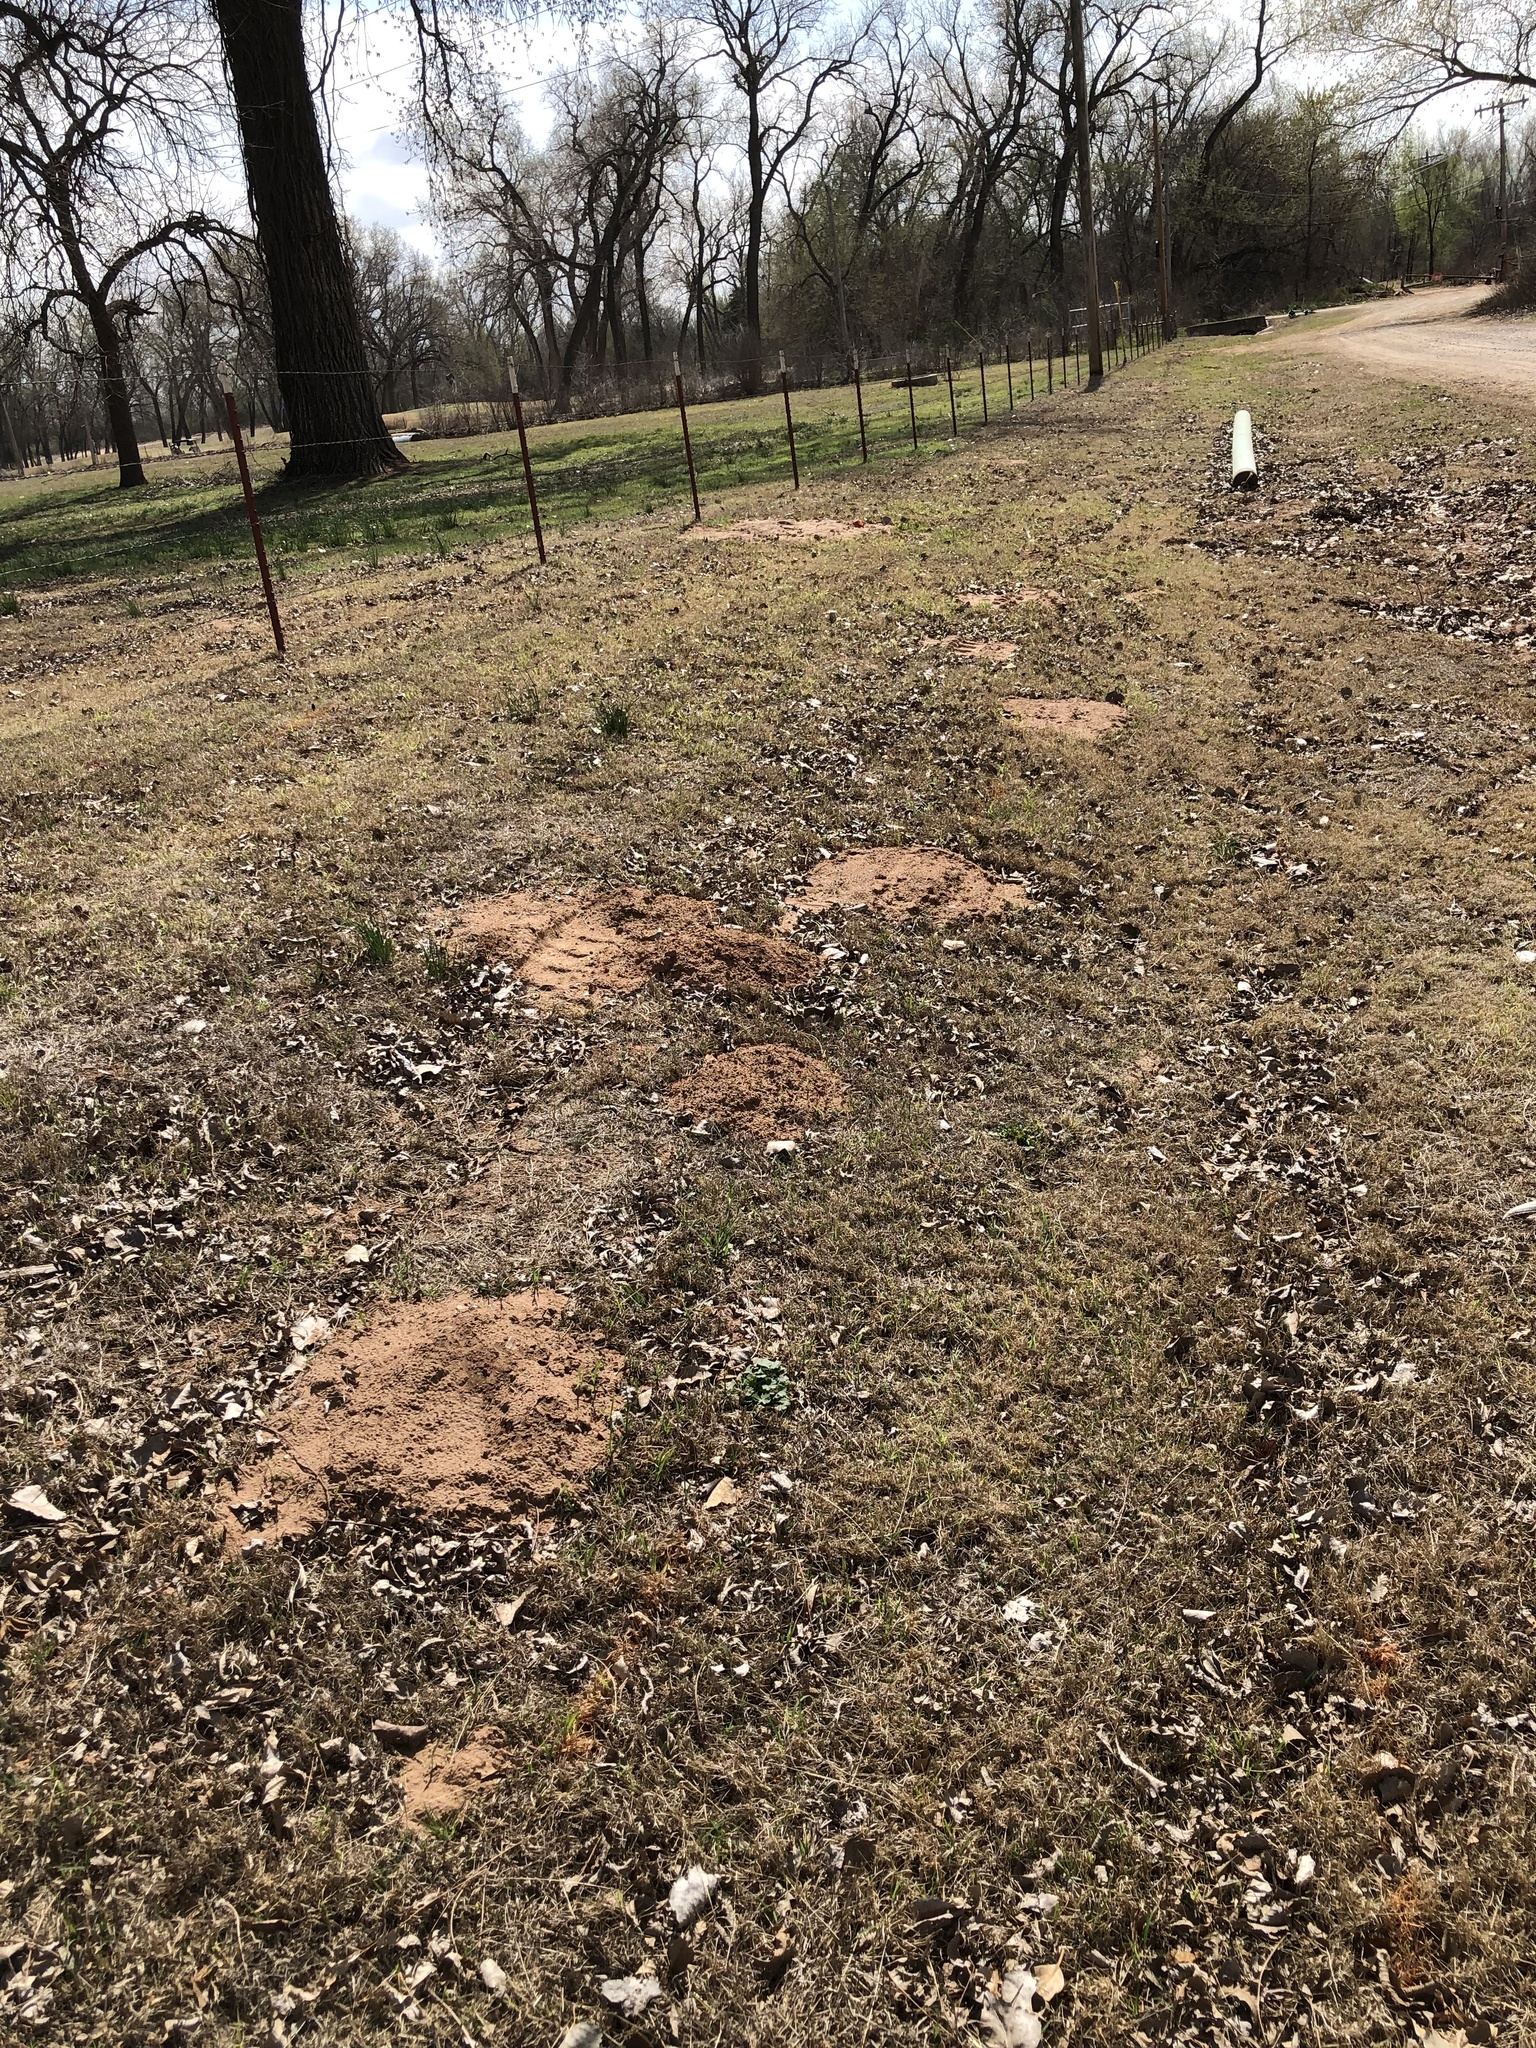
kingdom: Animalia
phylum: Chordata
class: Mammalia
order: Rodentia
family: Geomyidae
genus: Geomys
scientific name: Geomys bursarius
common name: Plains pocket gopher
